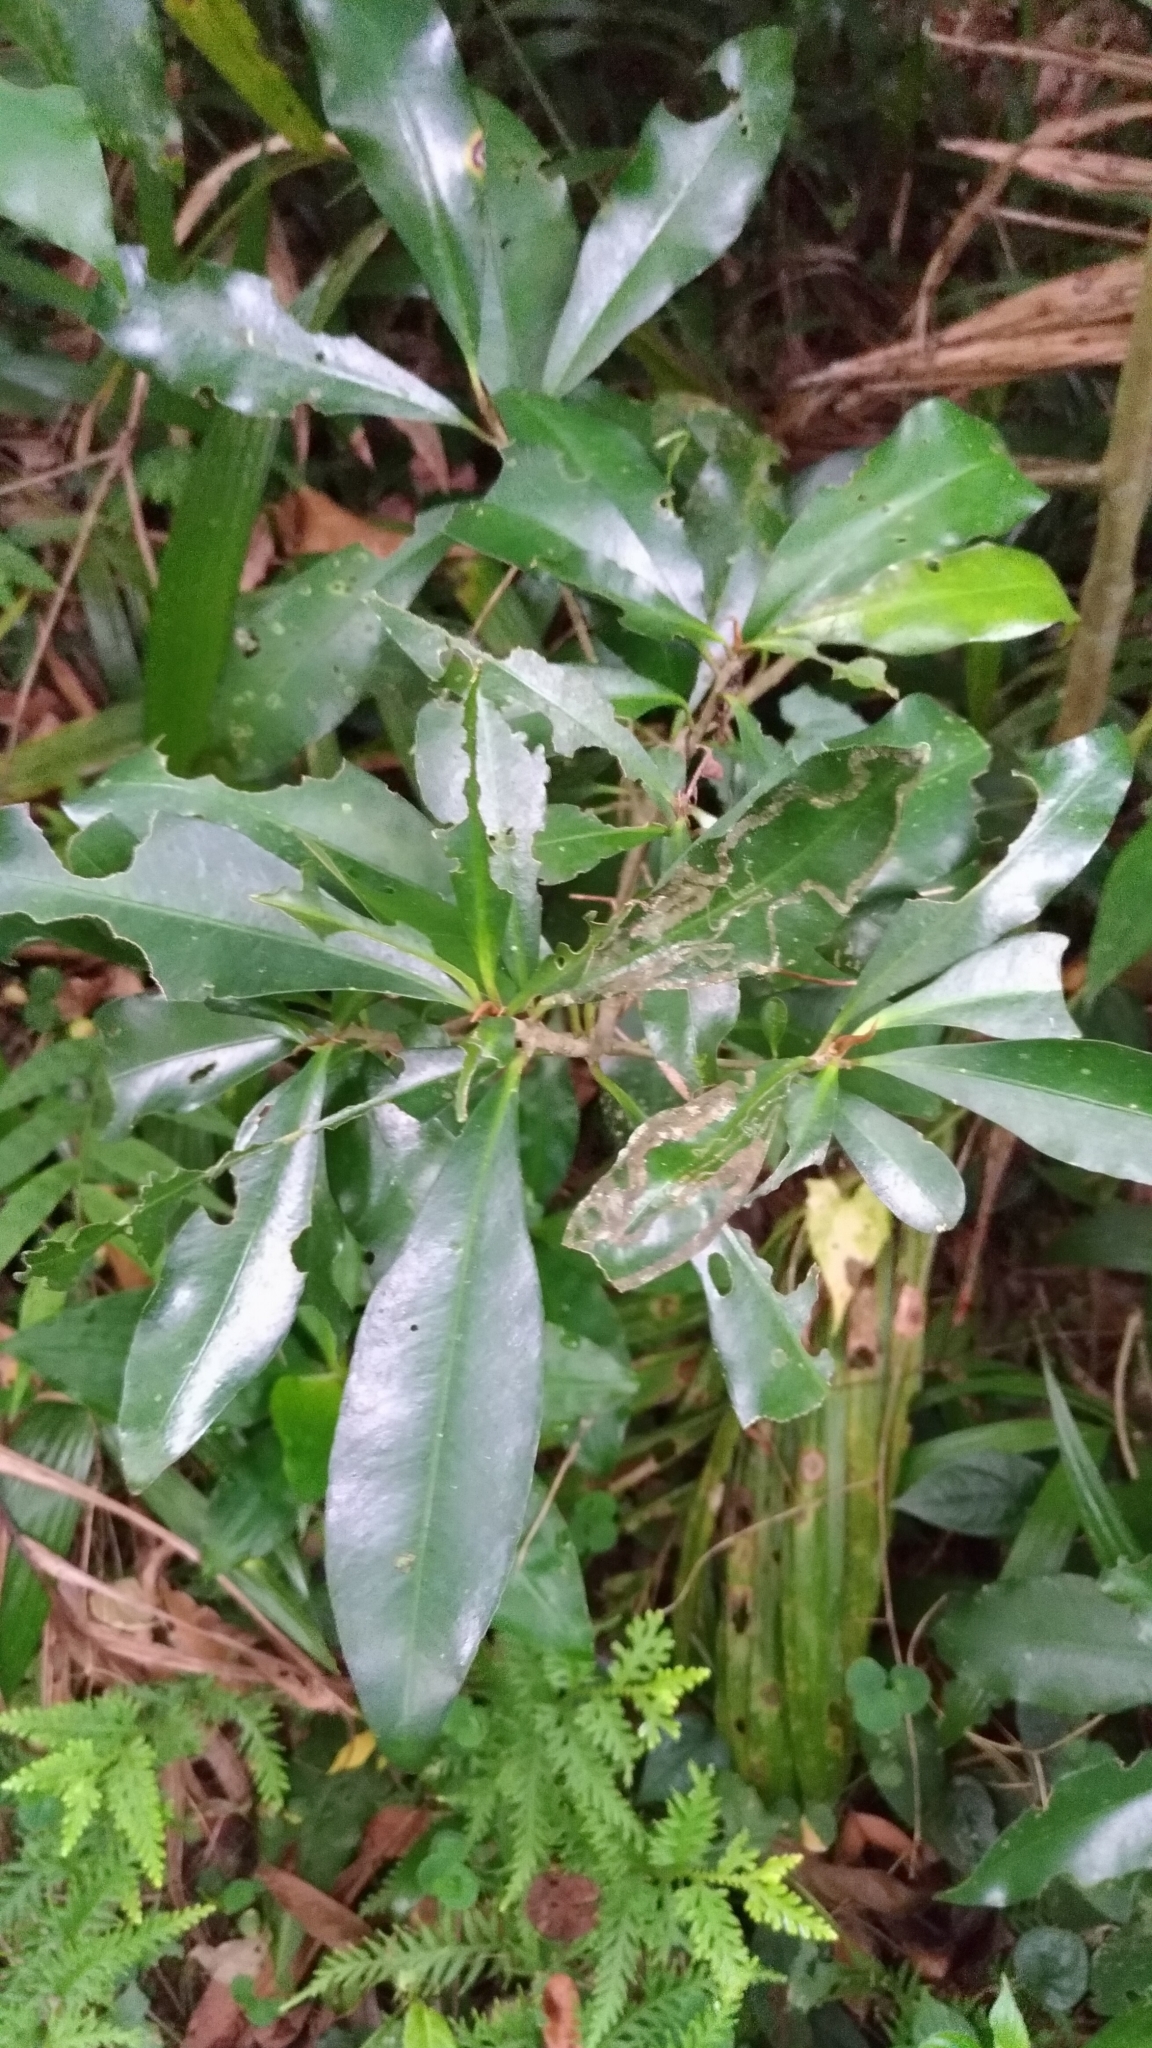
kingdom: Plantae
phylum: Tracheophyta
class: Magnoliopsida
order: Ericales
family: Primulaceae
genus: Ardisia
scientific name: Ardisia sieboldii
